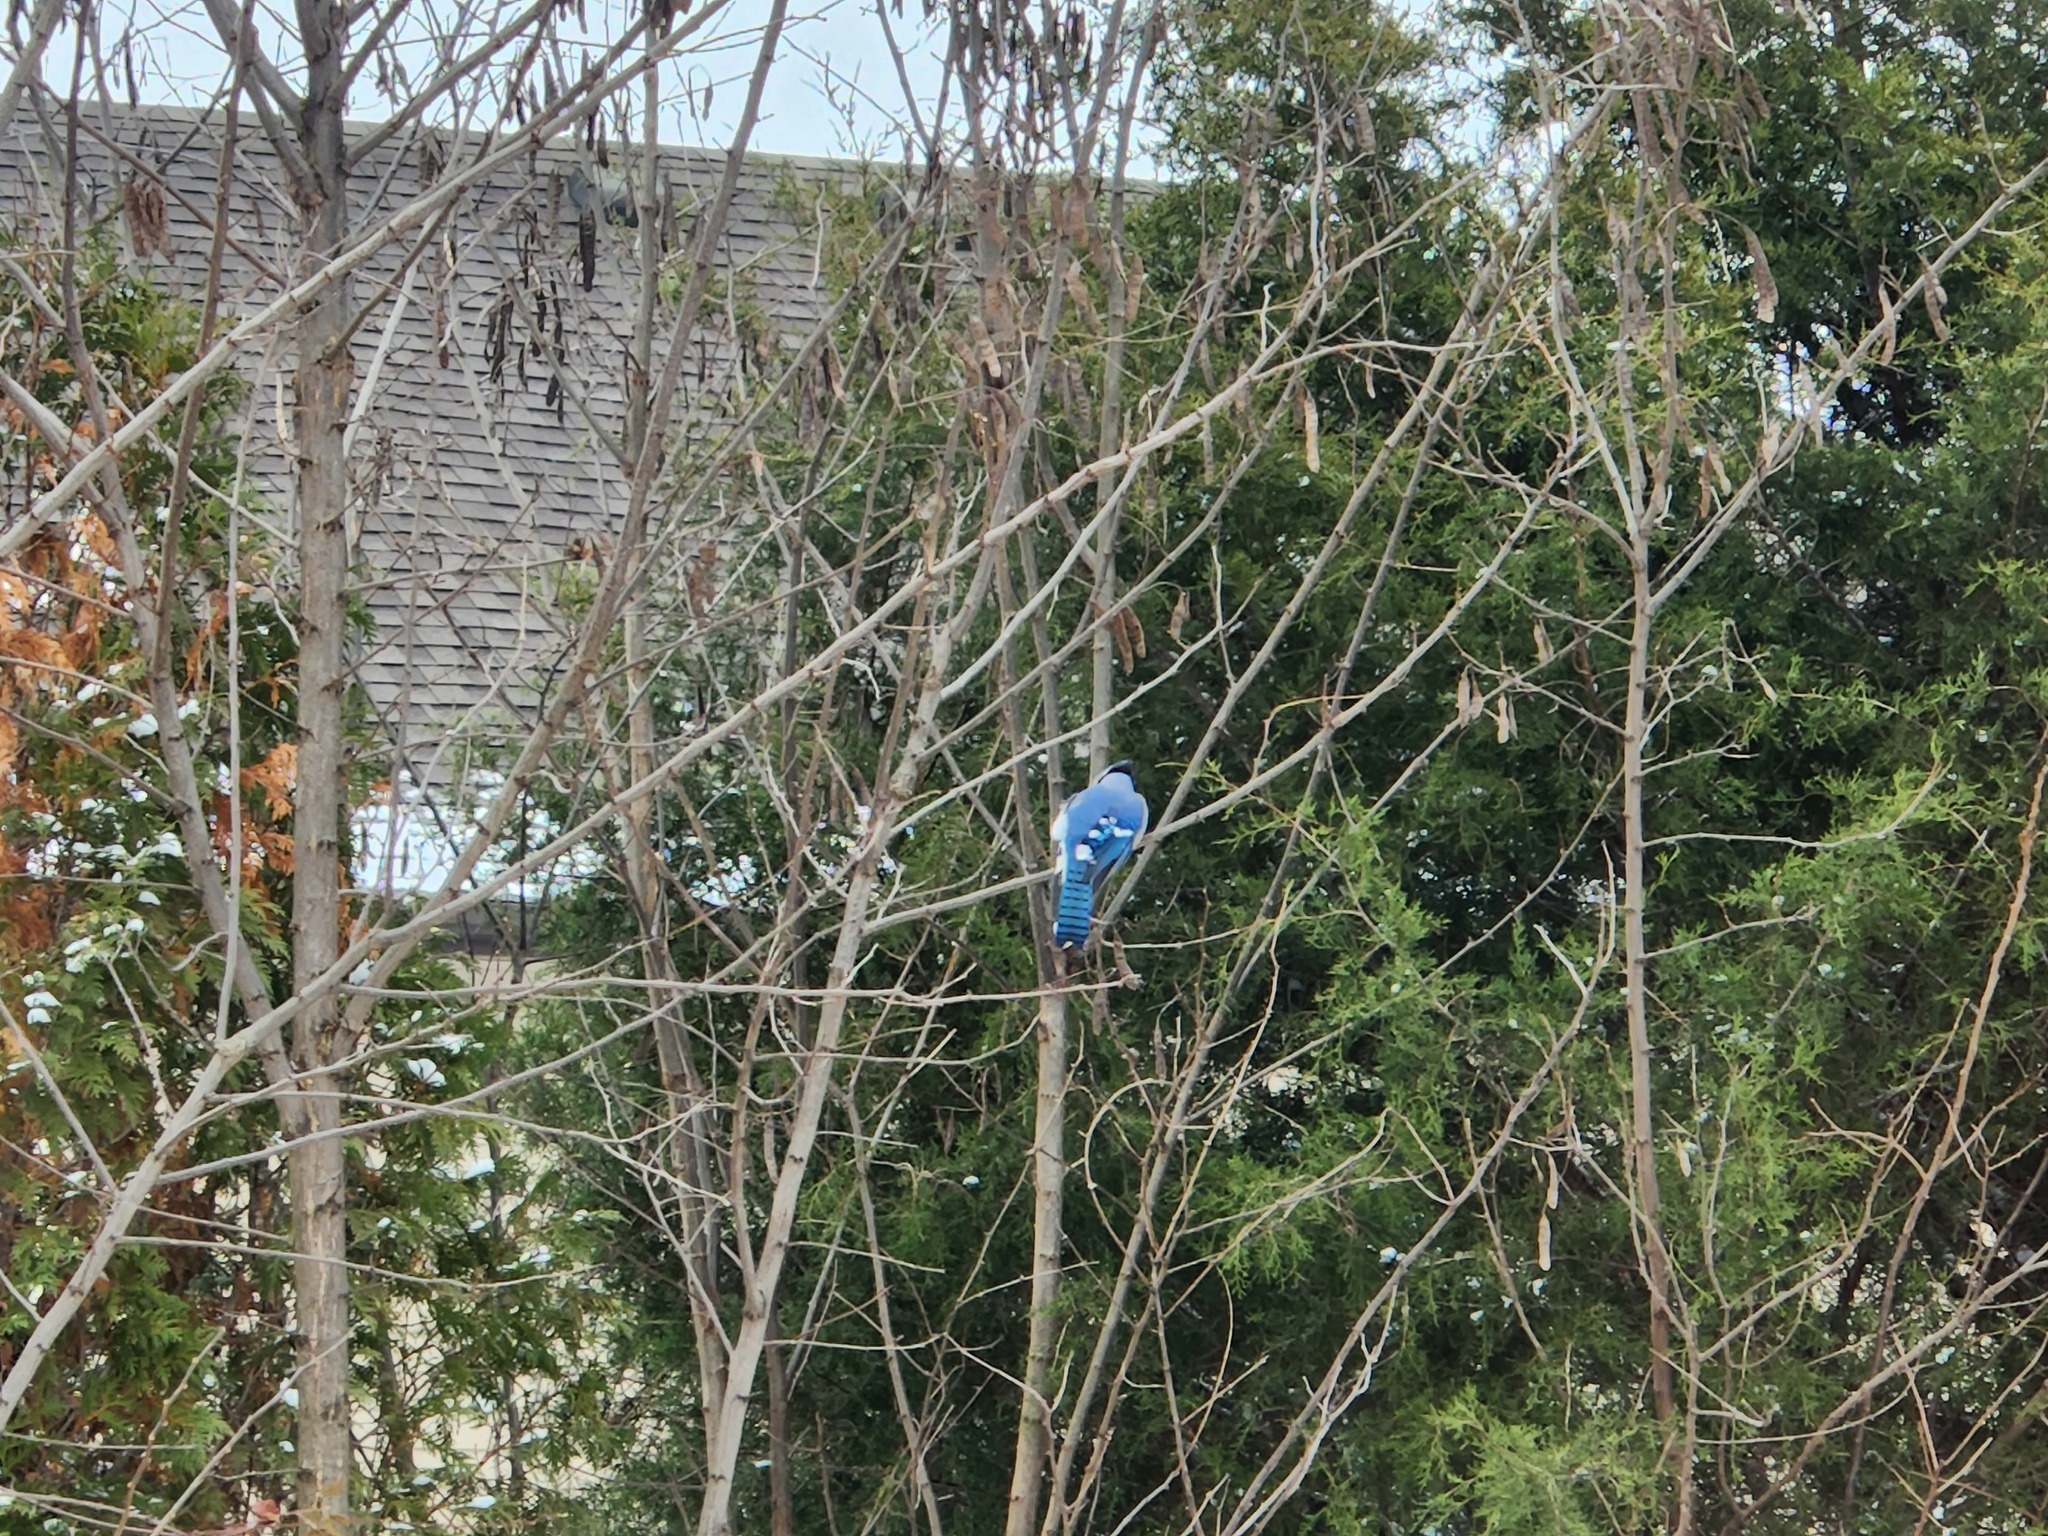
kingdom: Animalia
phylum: Chordata
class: Aves
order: Passeriformes
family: Corvidae
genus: Cyanocitta
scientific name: Cyanocitta cristata
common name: Blue jay
